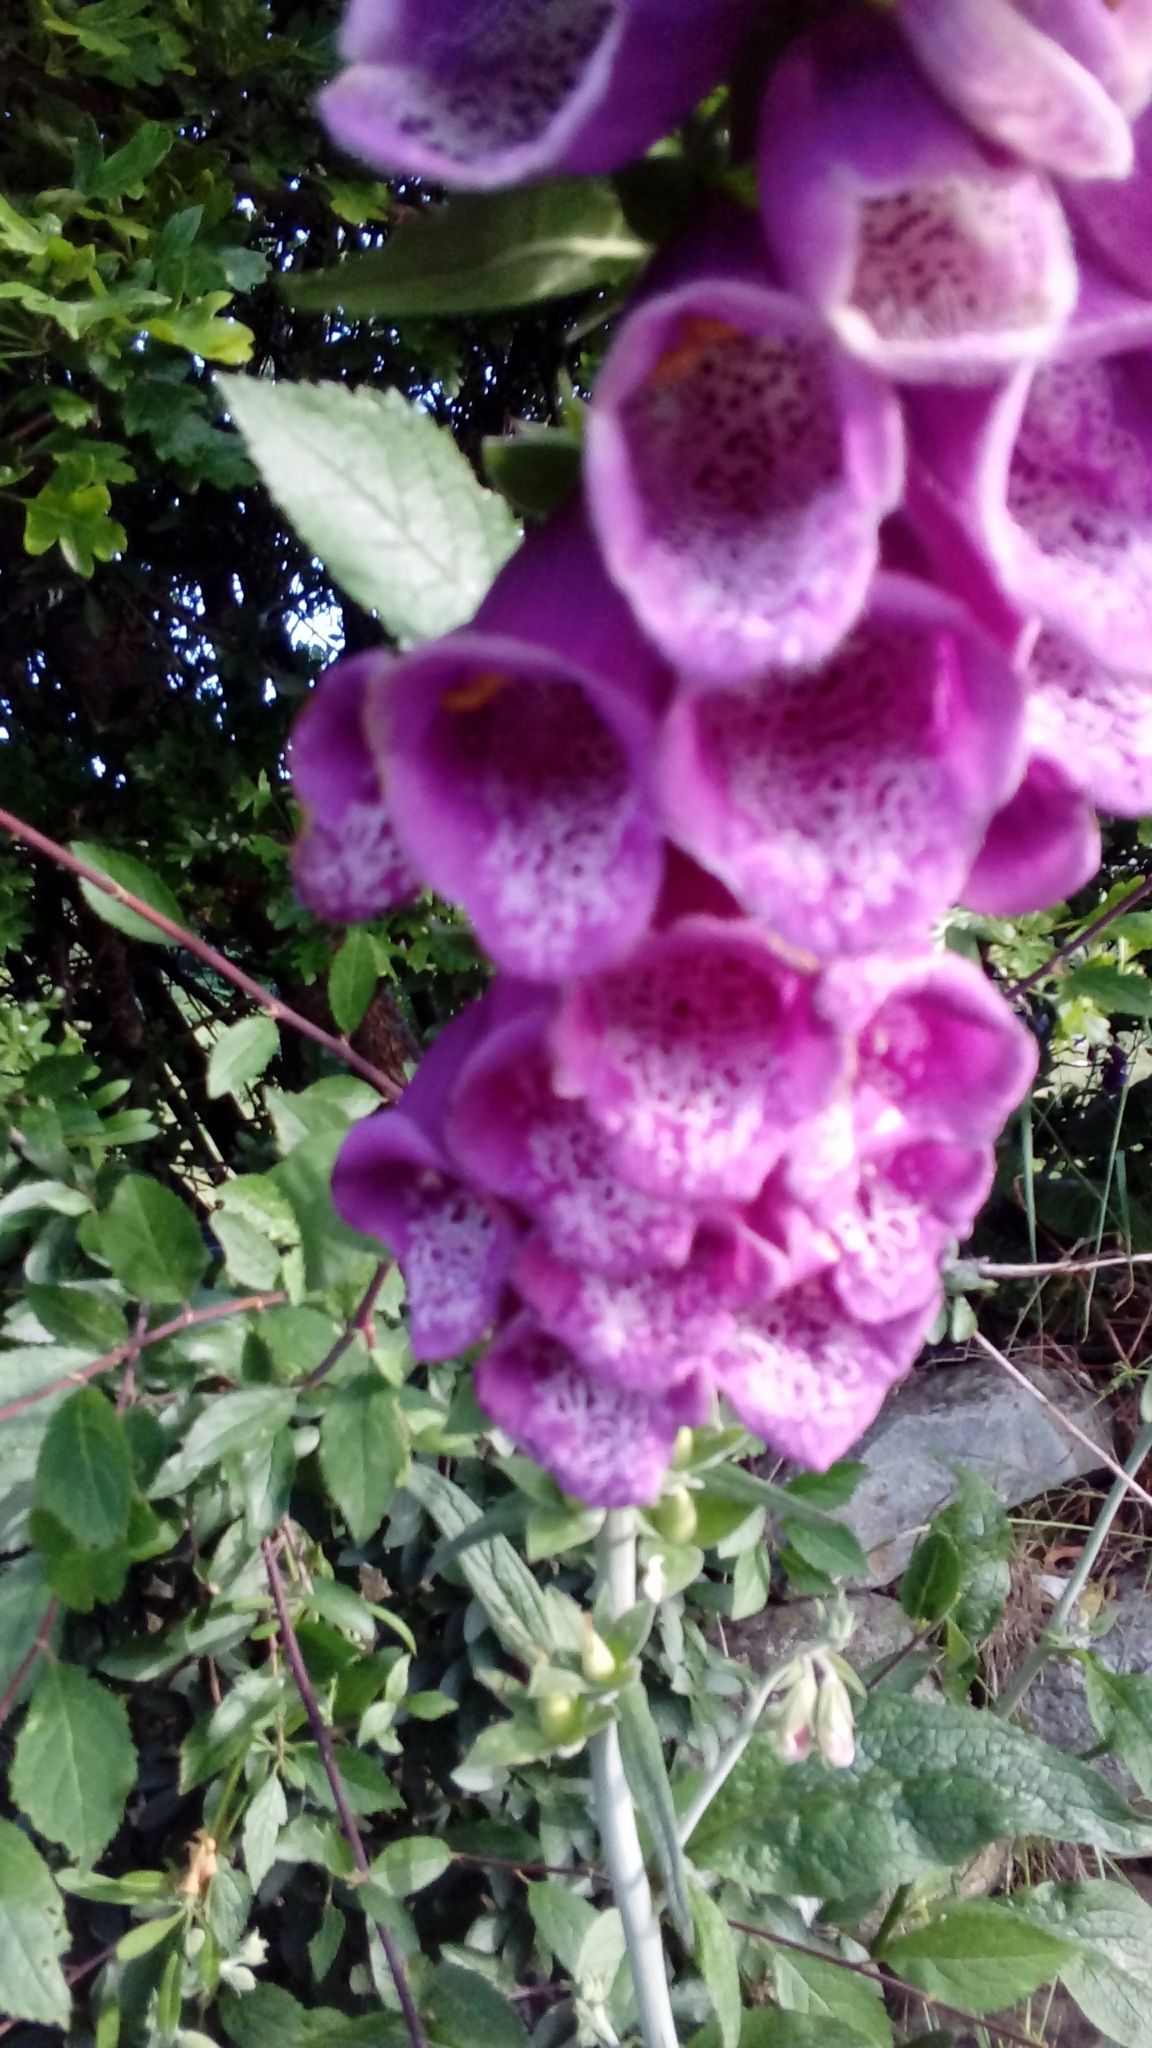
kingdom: Plantae
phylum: Tracheophyta
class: Magnoliopsida
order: Lamiales
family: Plantaginaceae
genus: Digitalis
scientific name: Digitalis purpurea
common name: Foxglove
